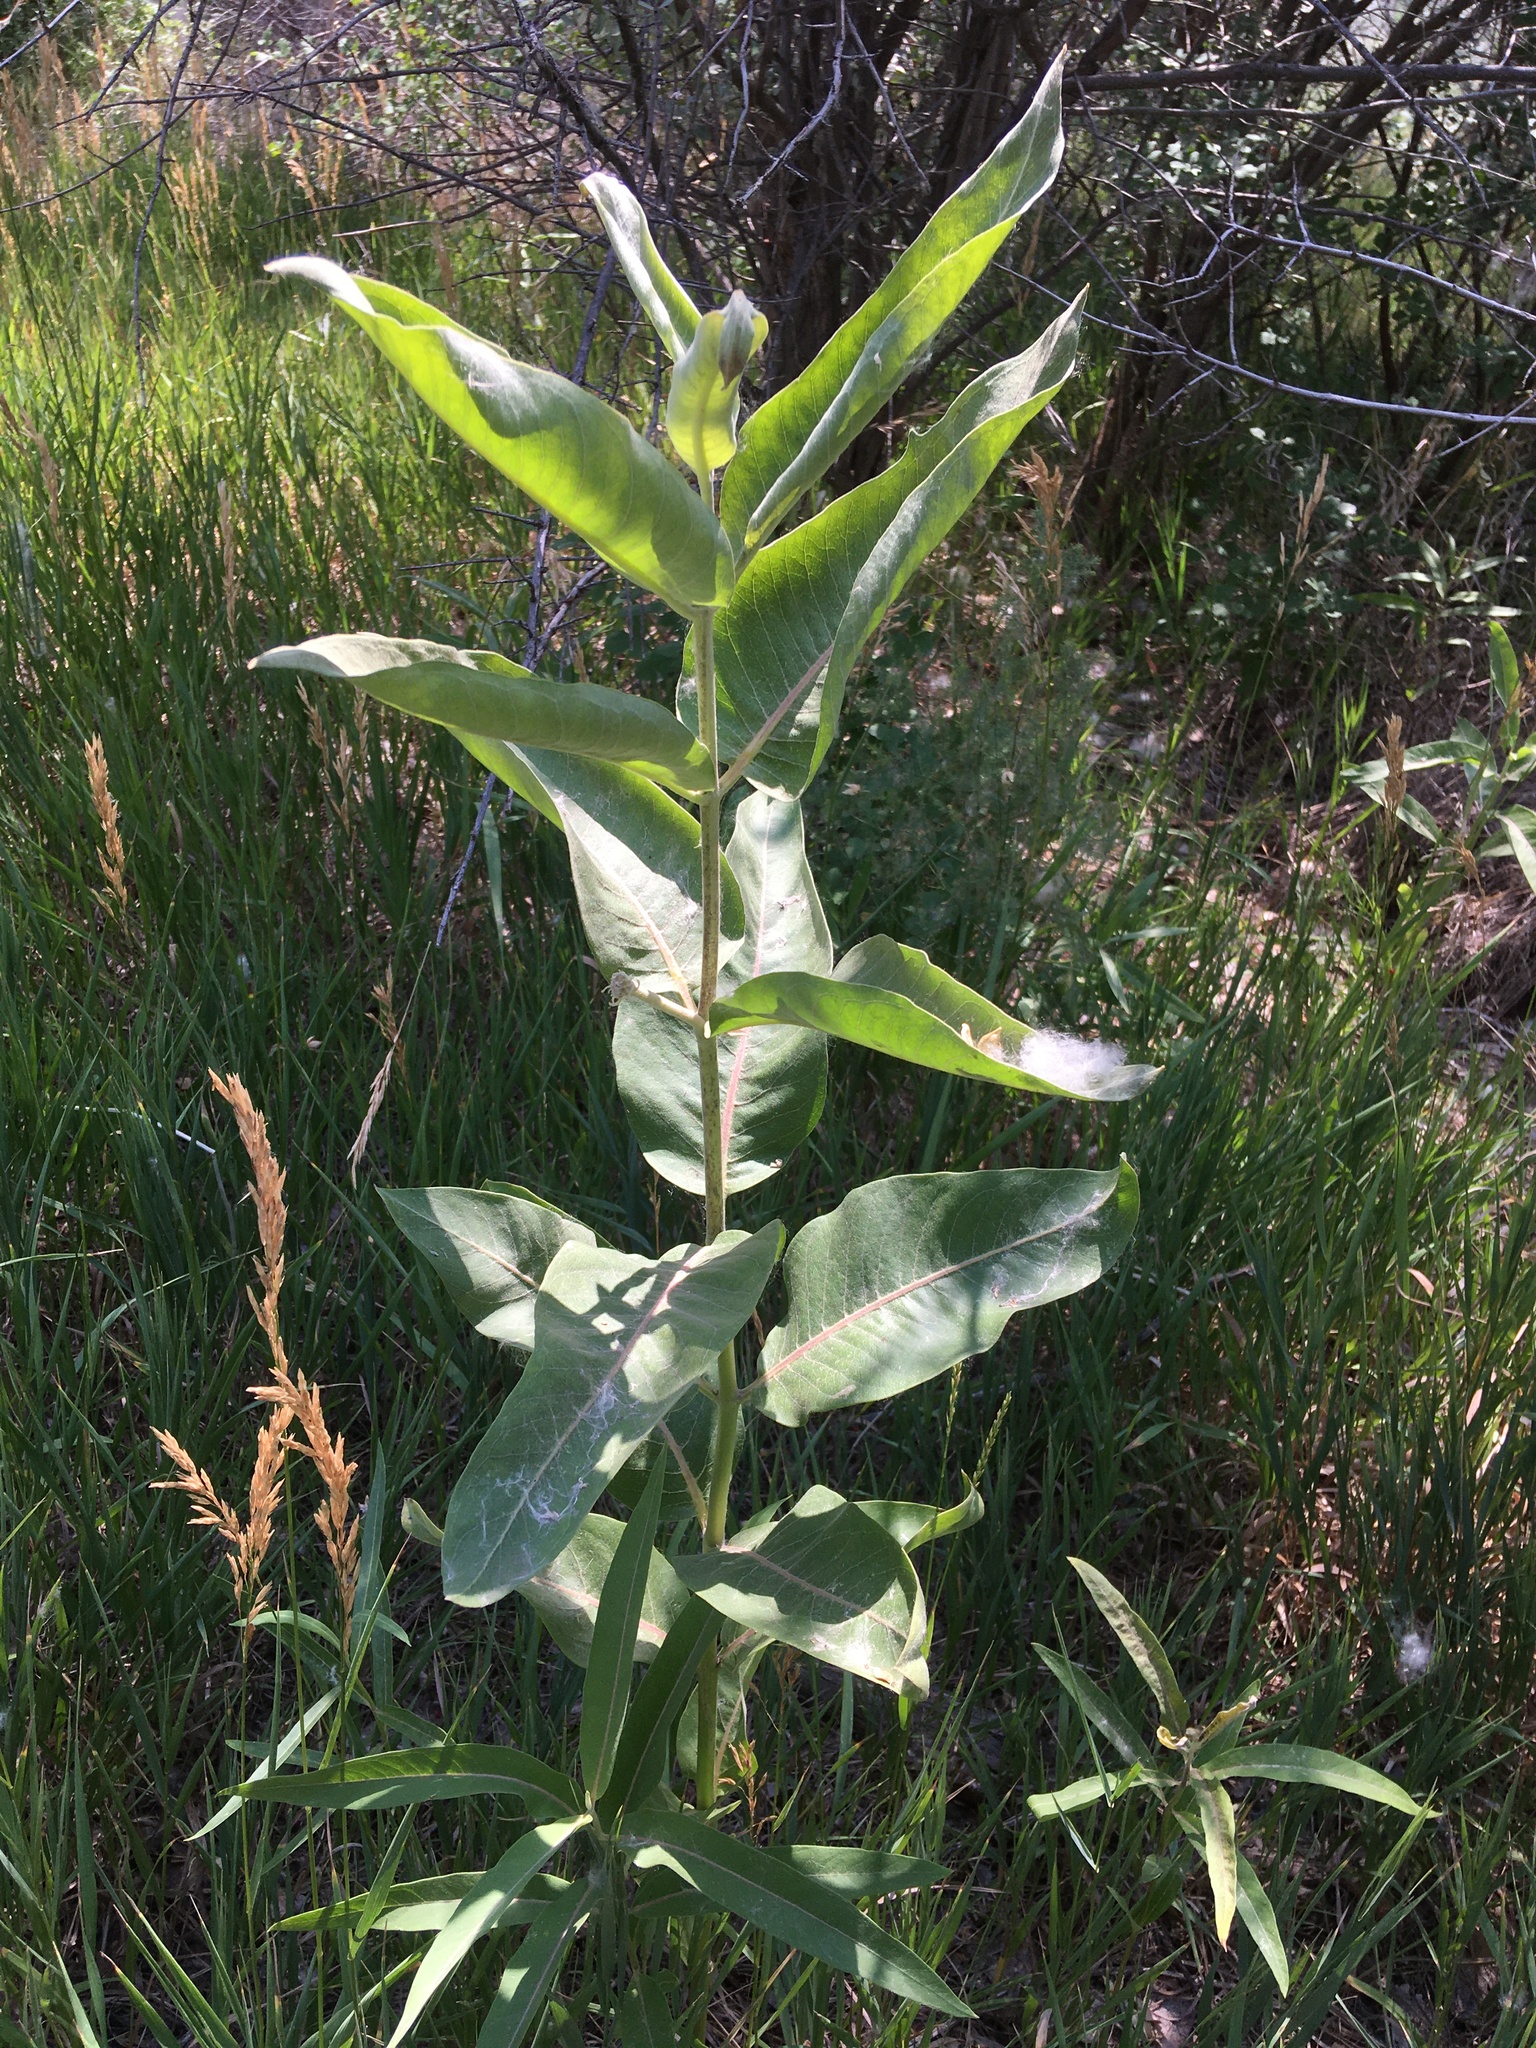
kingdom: Plantae
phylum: Tracheophyta
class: Magnoliopsida
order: Gentianales
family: Apocynaceae
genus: Asclepias
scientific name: Asclepias speciosa
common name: Showy milkweed
